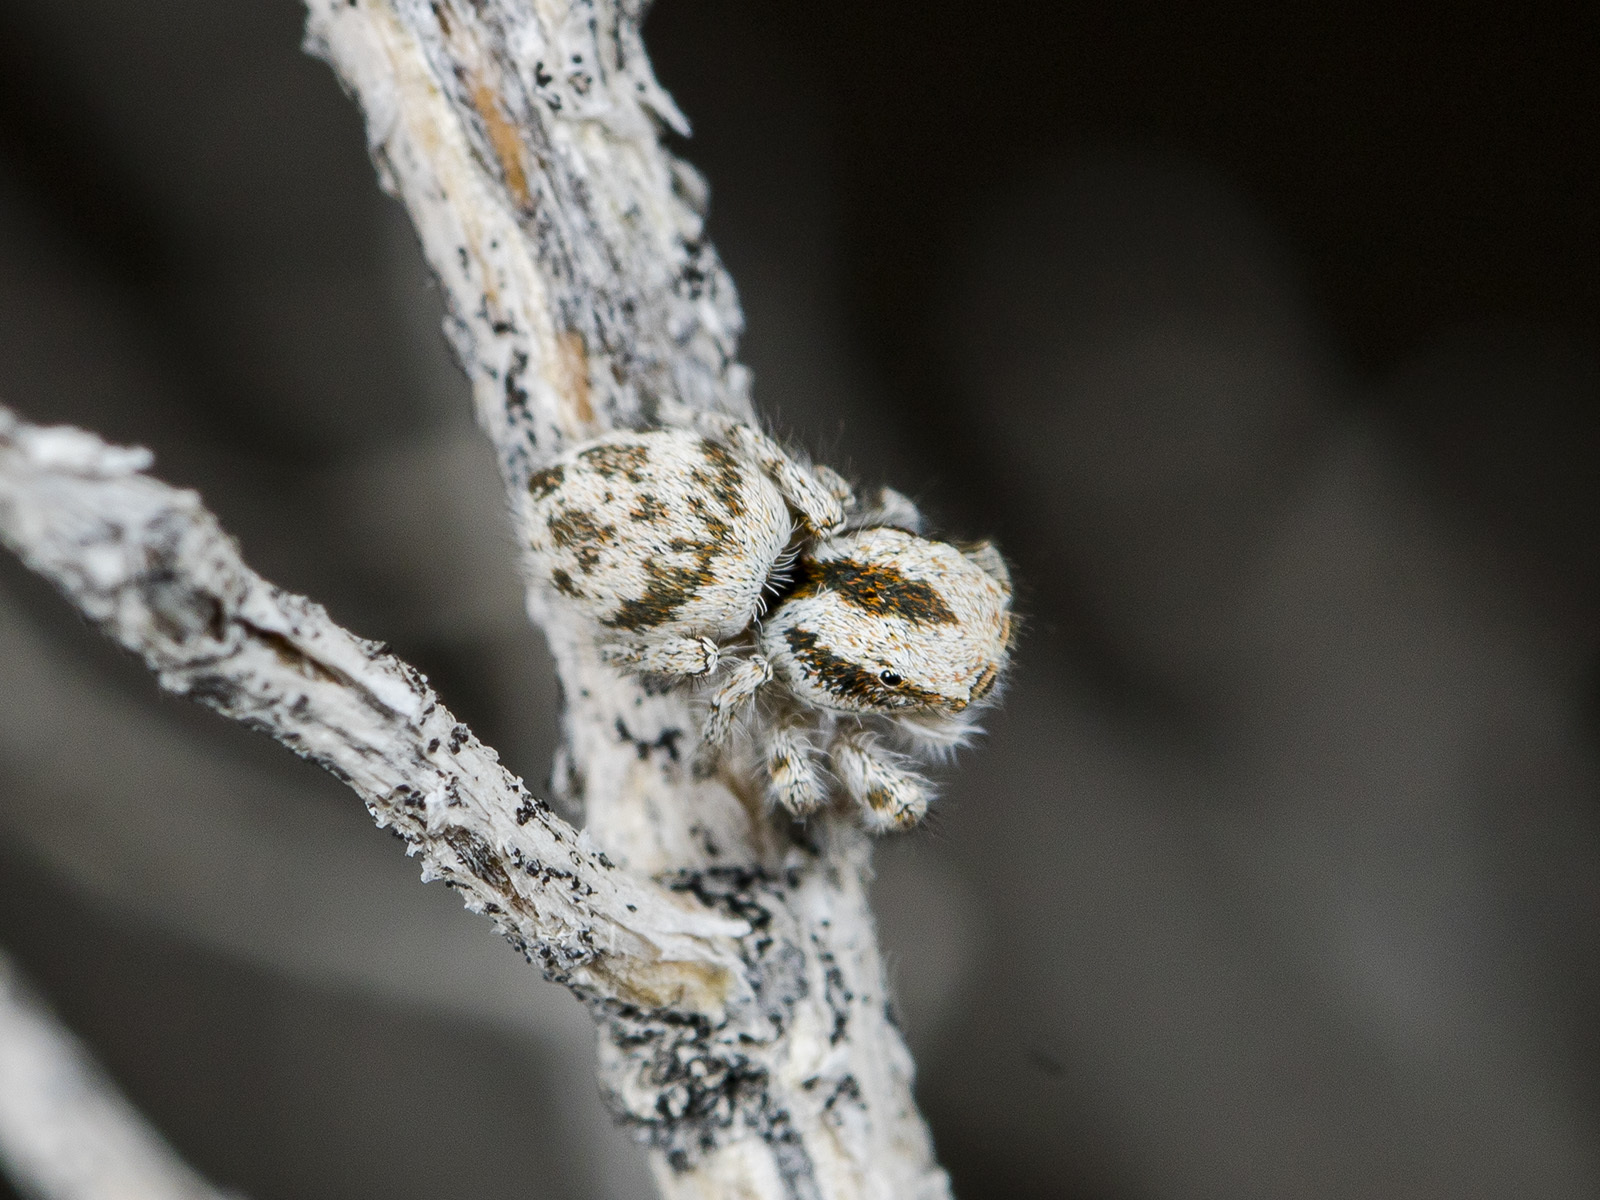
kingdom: Animalia
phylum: Arthropoda
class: Arachnida
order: Araneae
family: Salticidae
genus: Pseudomogrus
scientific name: Pseudomogrus dalaensis
